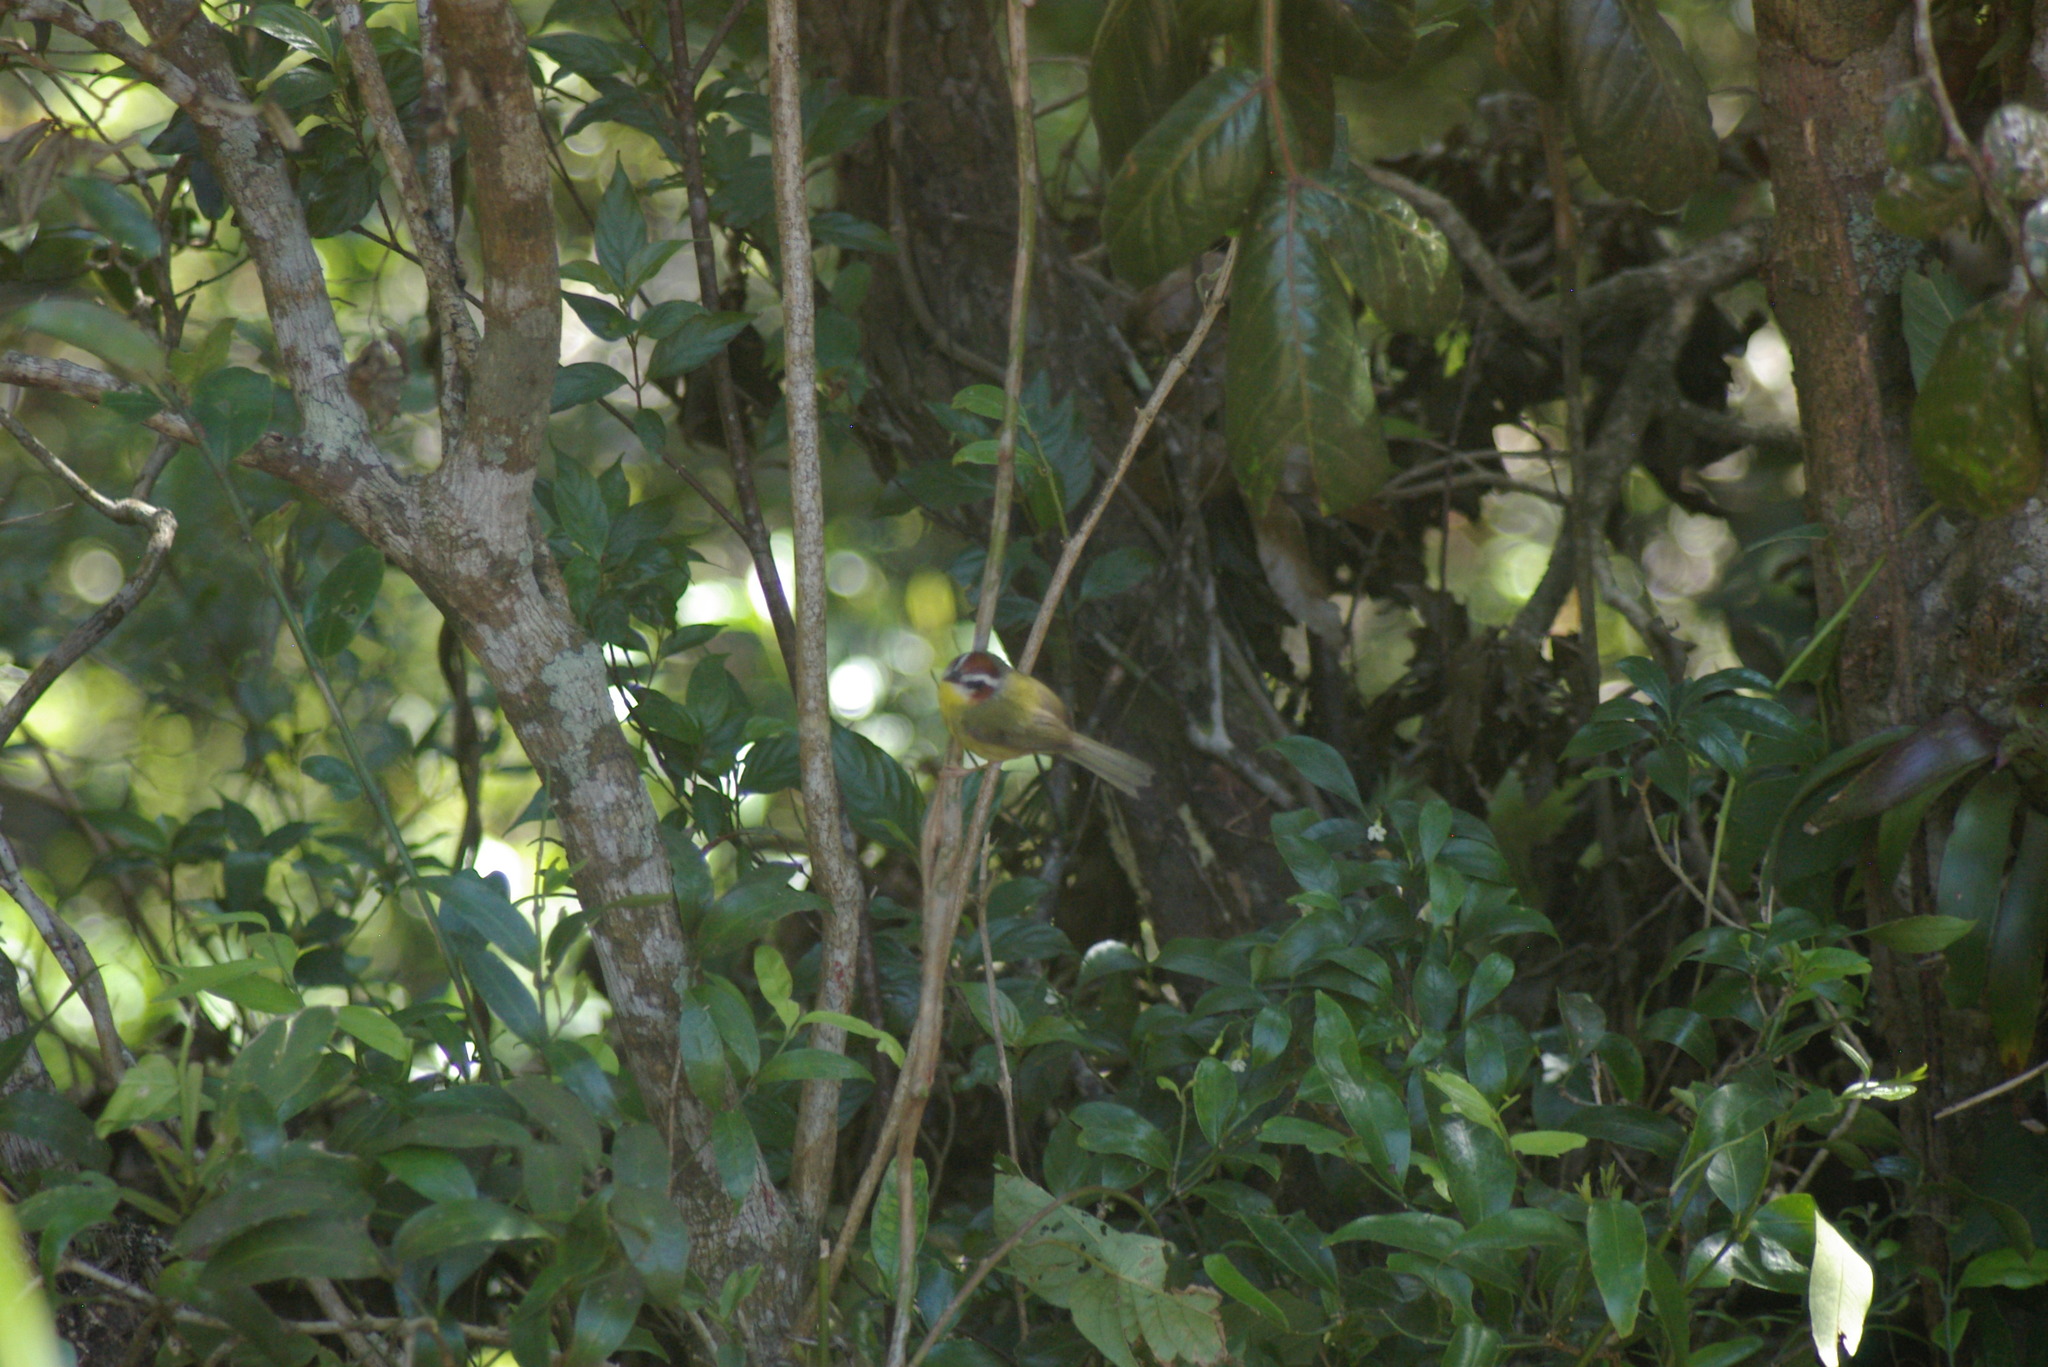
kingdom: Animalia
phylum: Chordata
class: Aves
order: Passeriformes
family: Parulidae
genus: Basileuterus
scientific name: Basileuterus rufifrons
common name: Rufous-capped warbler
